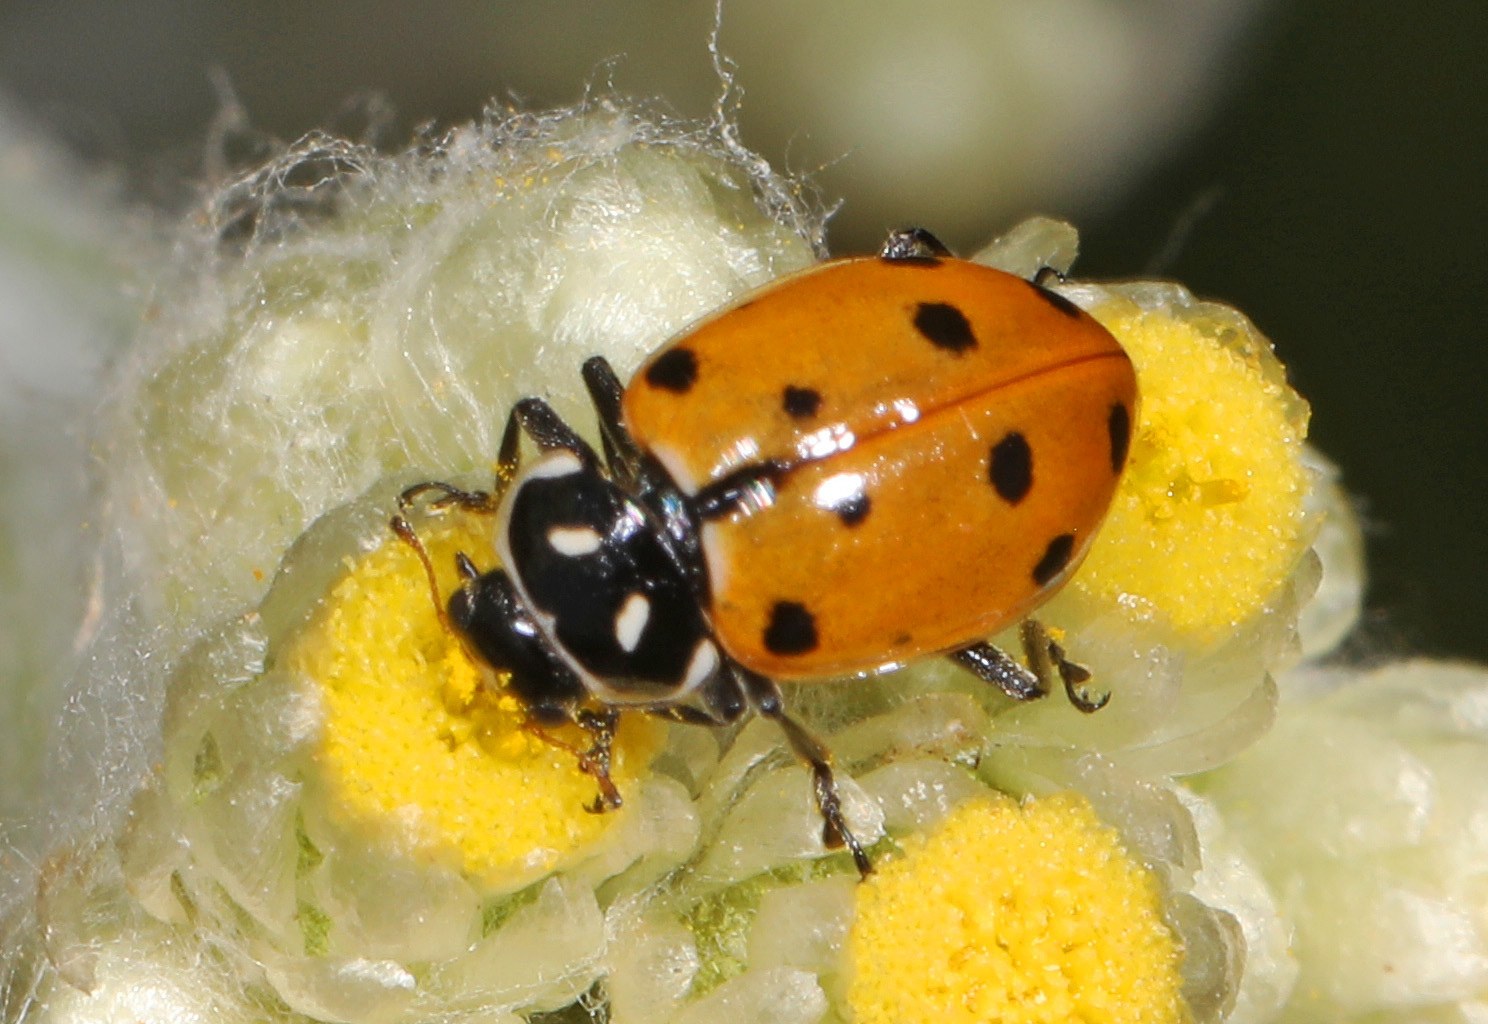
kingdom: Animalia
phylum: Arthropoda
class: Insecta
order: Coleoptera
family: Coccinellidae
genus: Hippodamia
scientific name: Hippodamia convergens
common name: Convergent lady beetle
